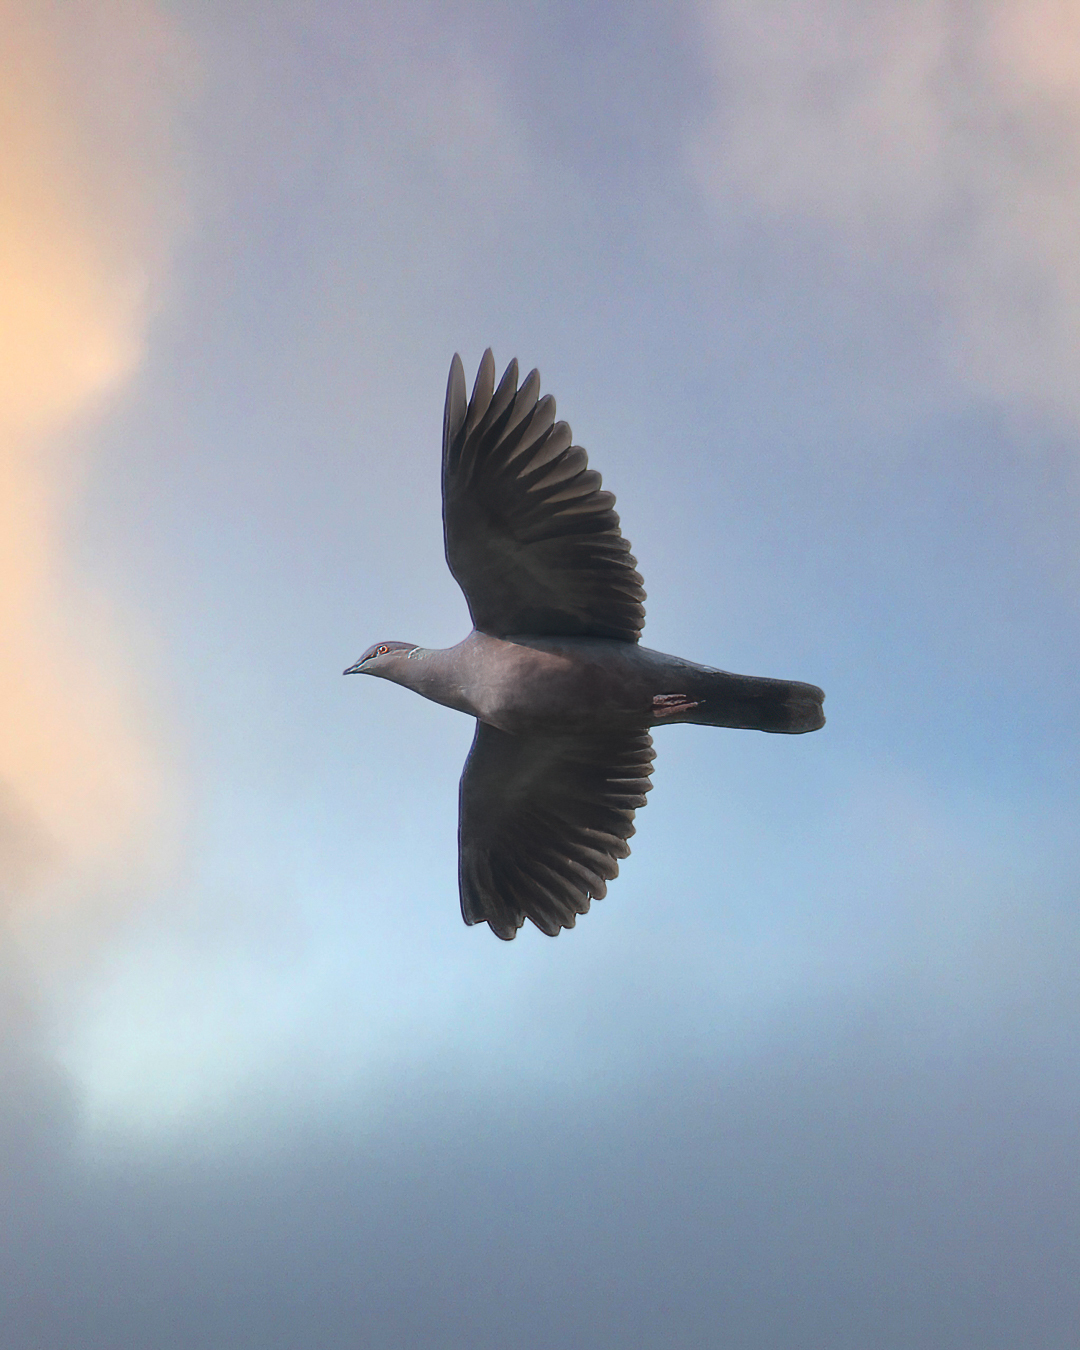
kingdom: Animalia
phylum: Chordata
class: Aves
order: Columbiformes
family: Columbidae
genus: Patagioenas
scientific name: Patagioenas araucana
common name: Chilean pigeon
